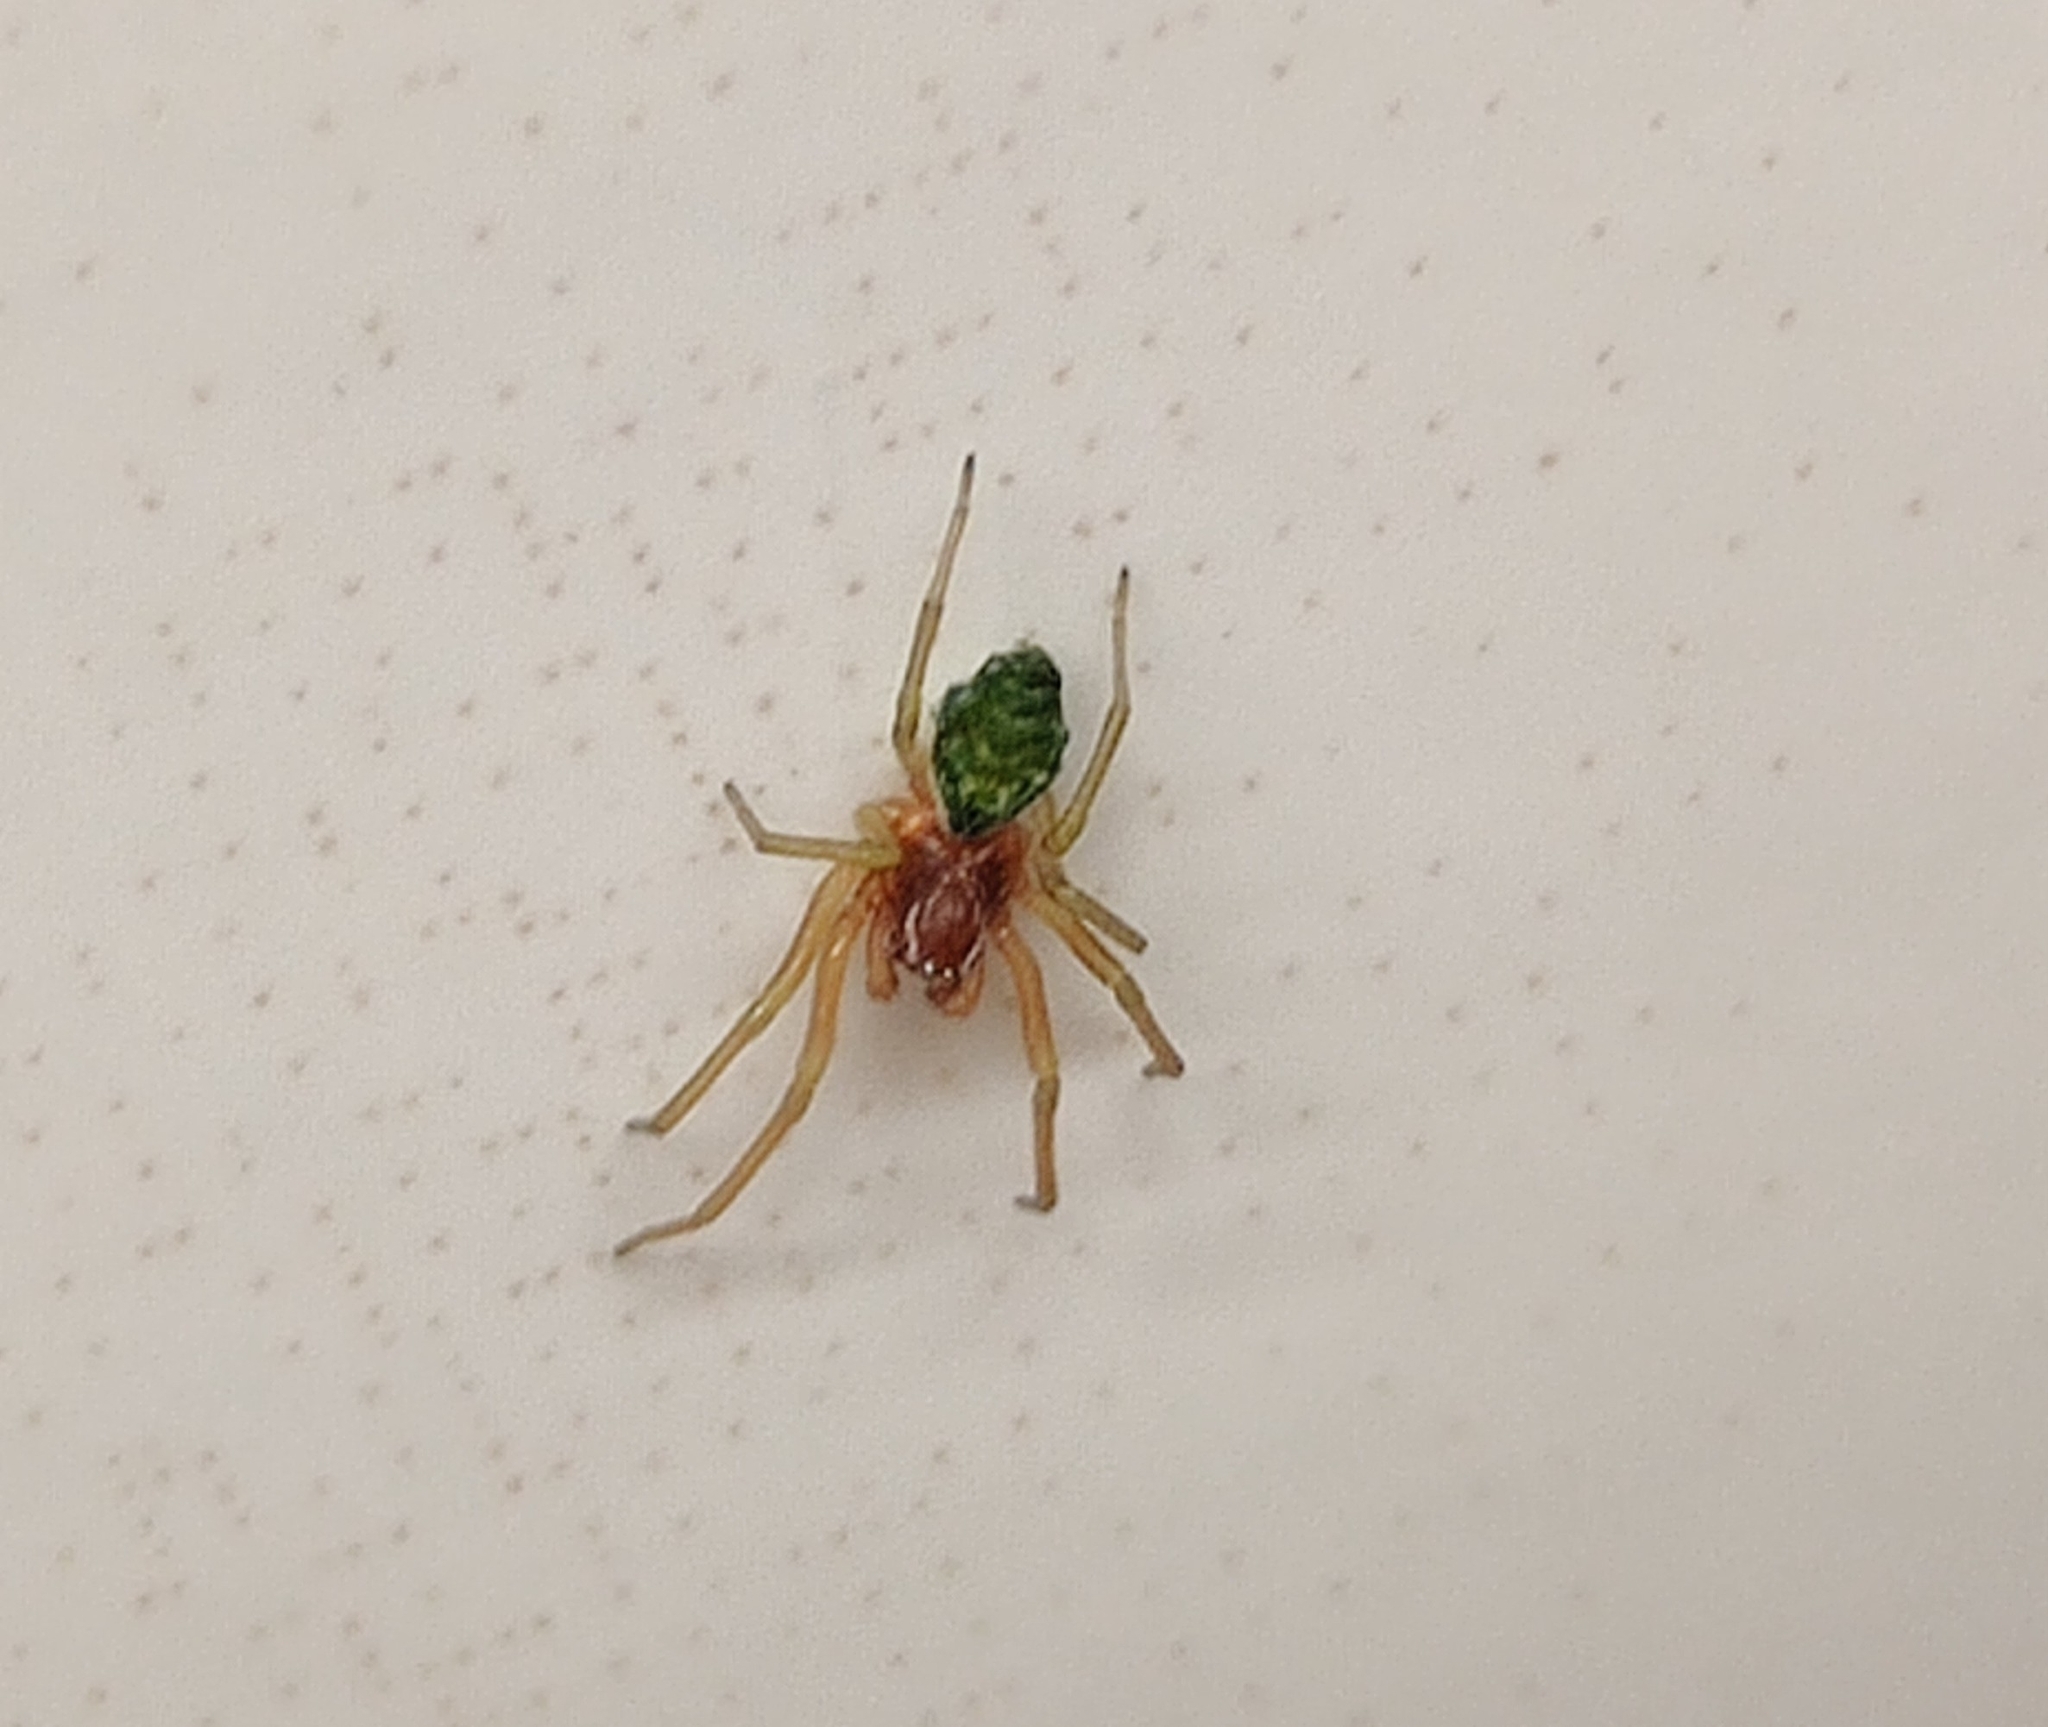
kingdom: Animalia
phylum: Arthropoda
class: Arachnida
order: Araneae
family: Dictynidae
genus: Nigma
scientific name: Nigma walckenaeri
